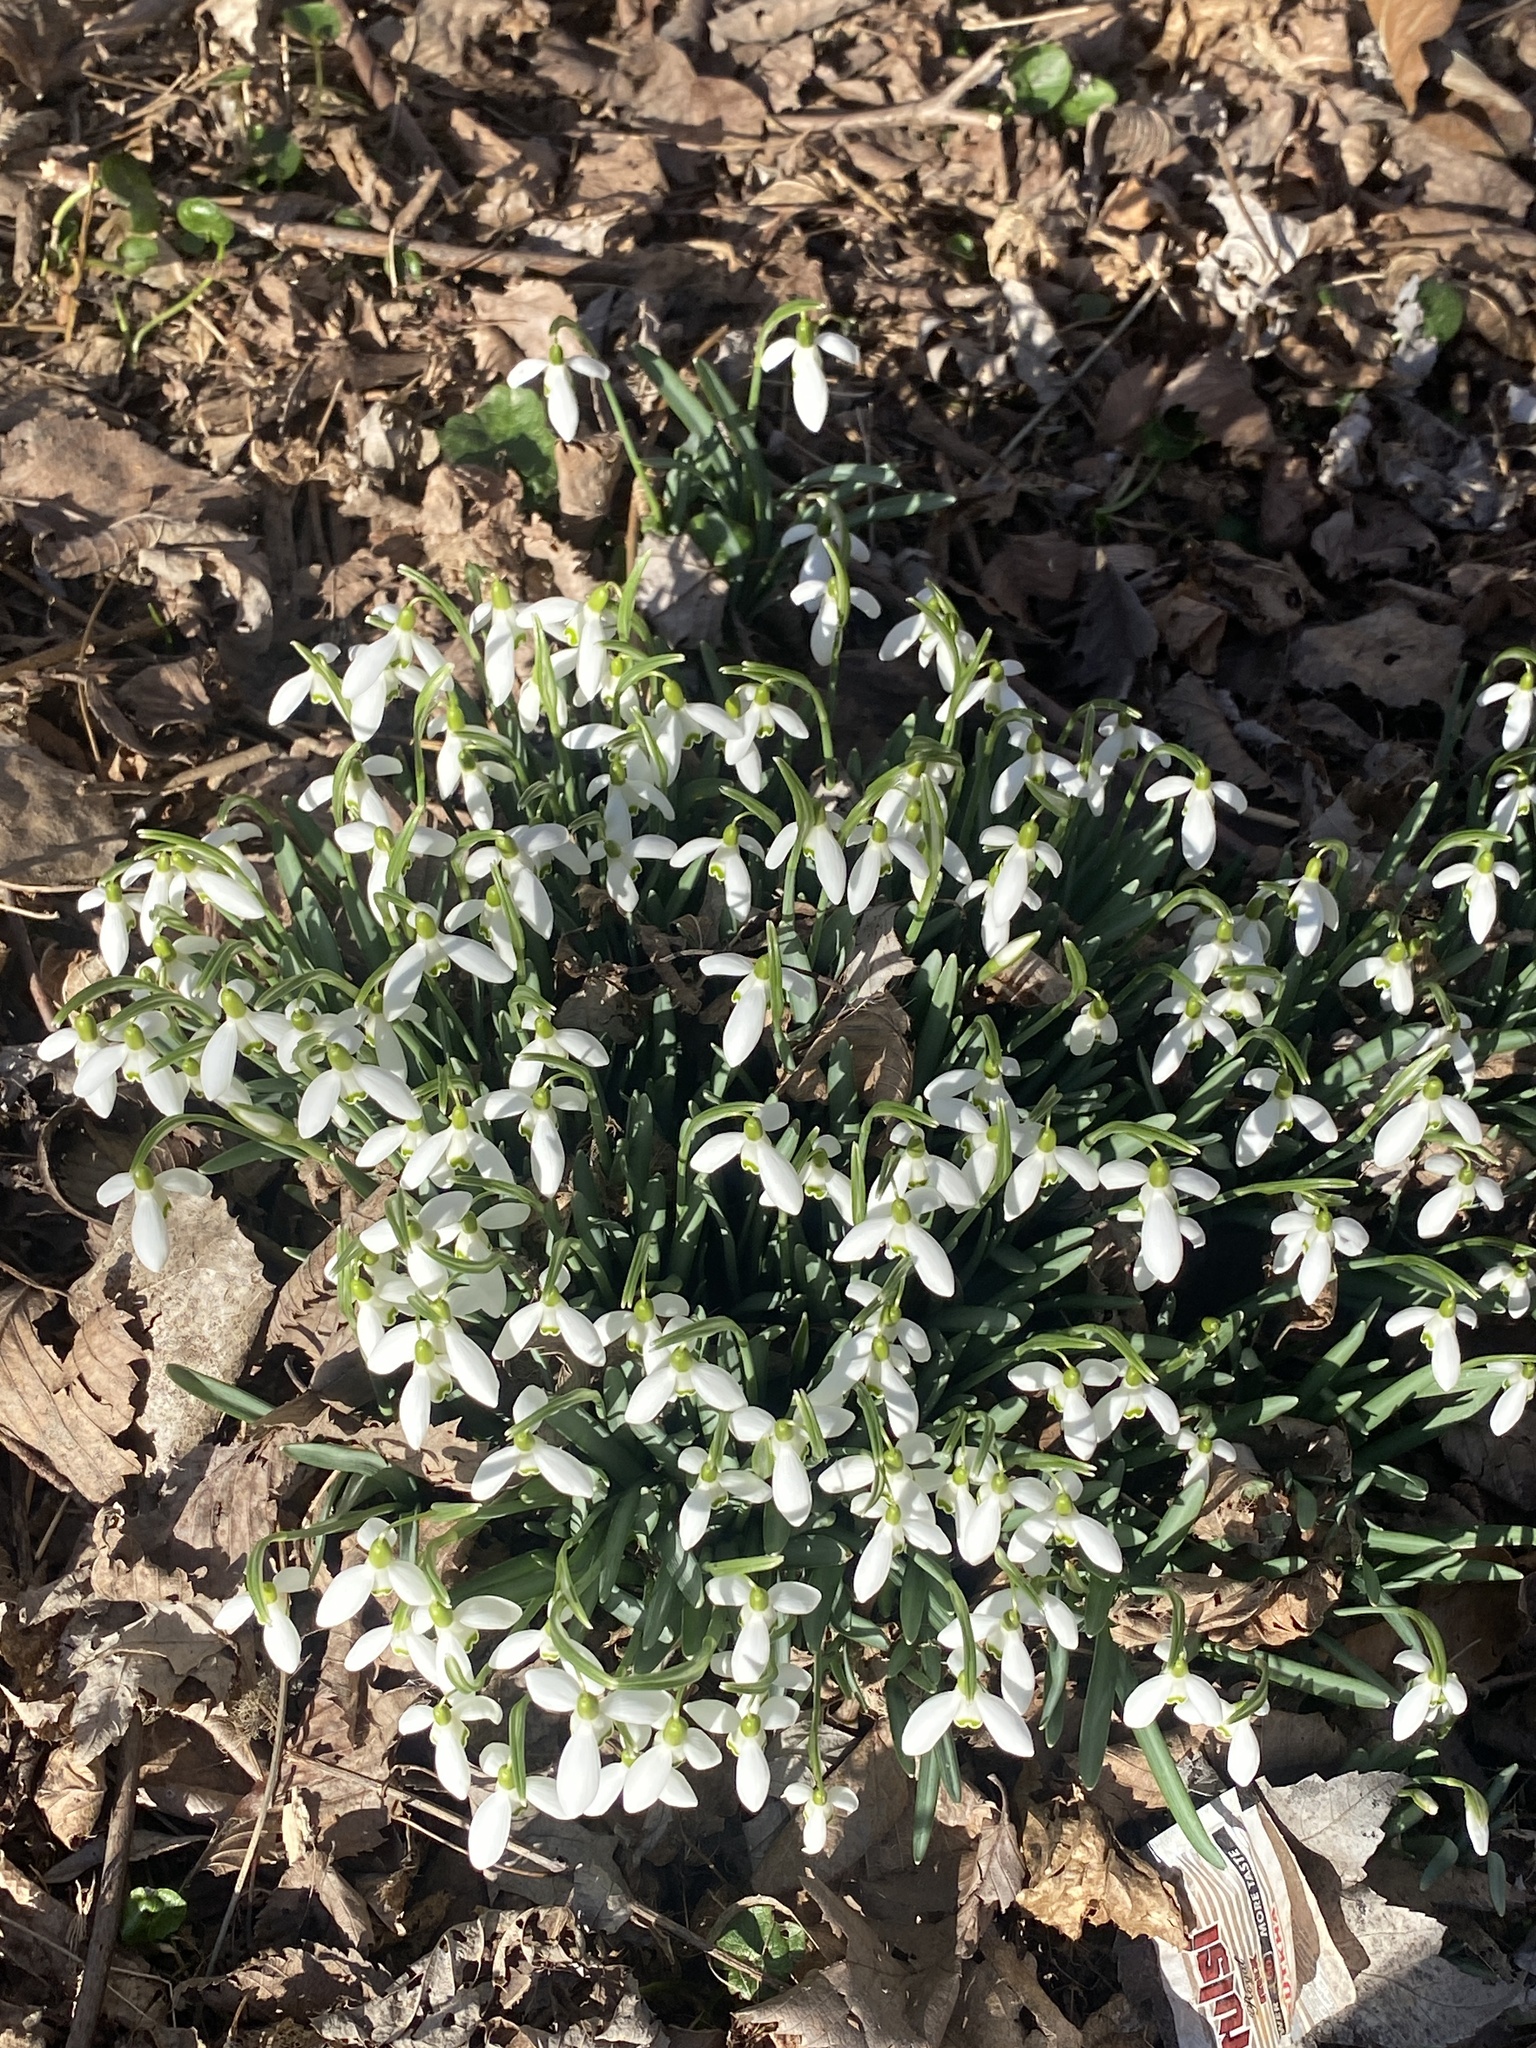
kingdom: Plantae
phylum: Tracheophyta
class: Liliopsida
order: Asparagales
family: Amaryllidaceae
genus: Galanthus
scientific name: Galanthus nivalis
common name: Snowdrop
